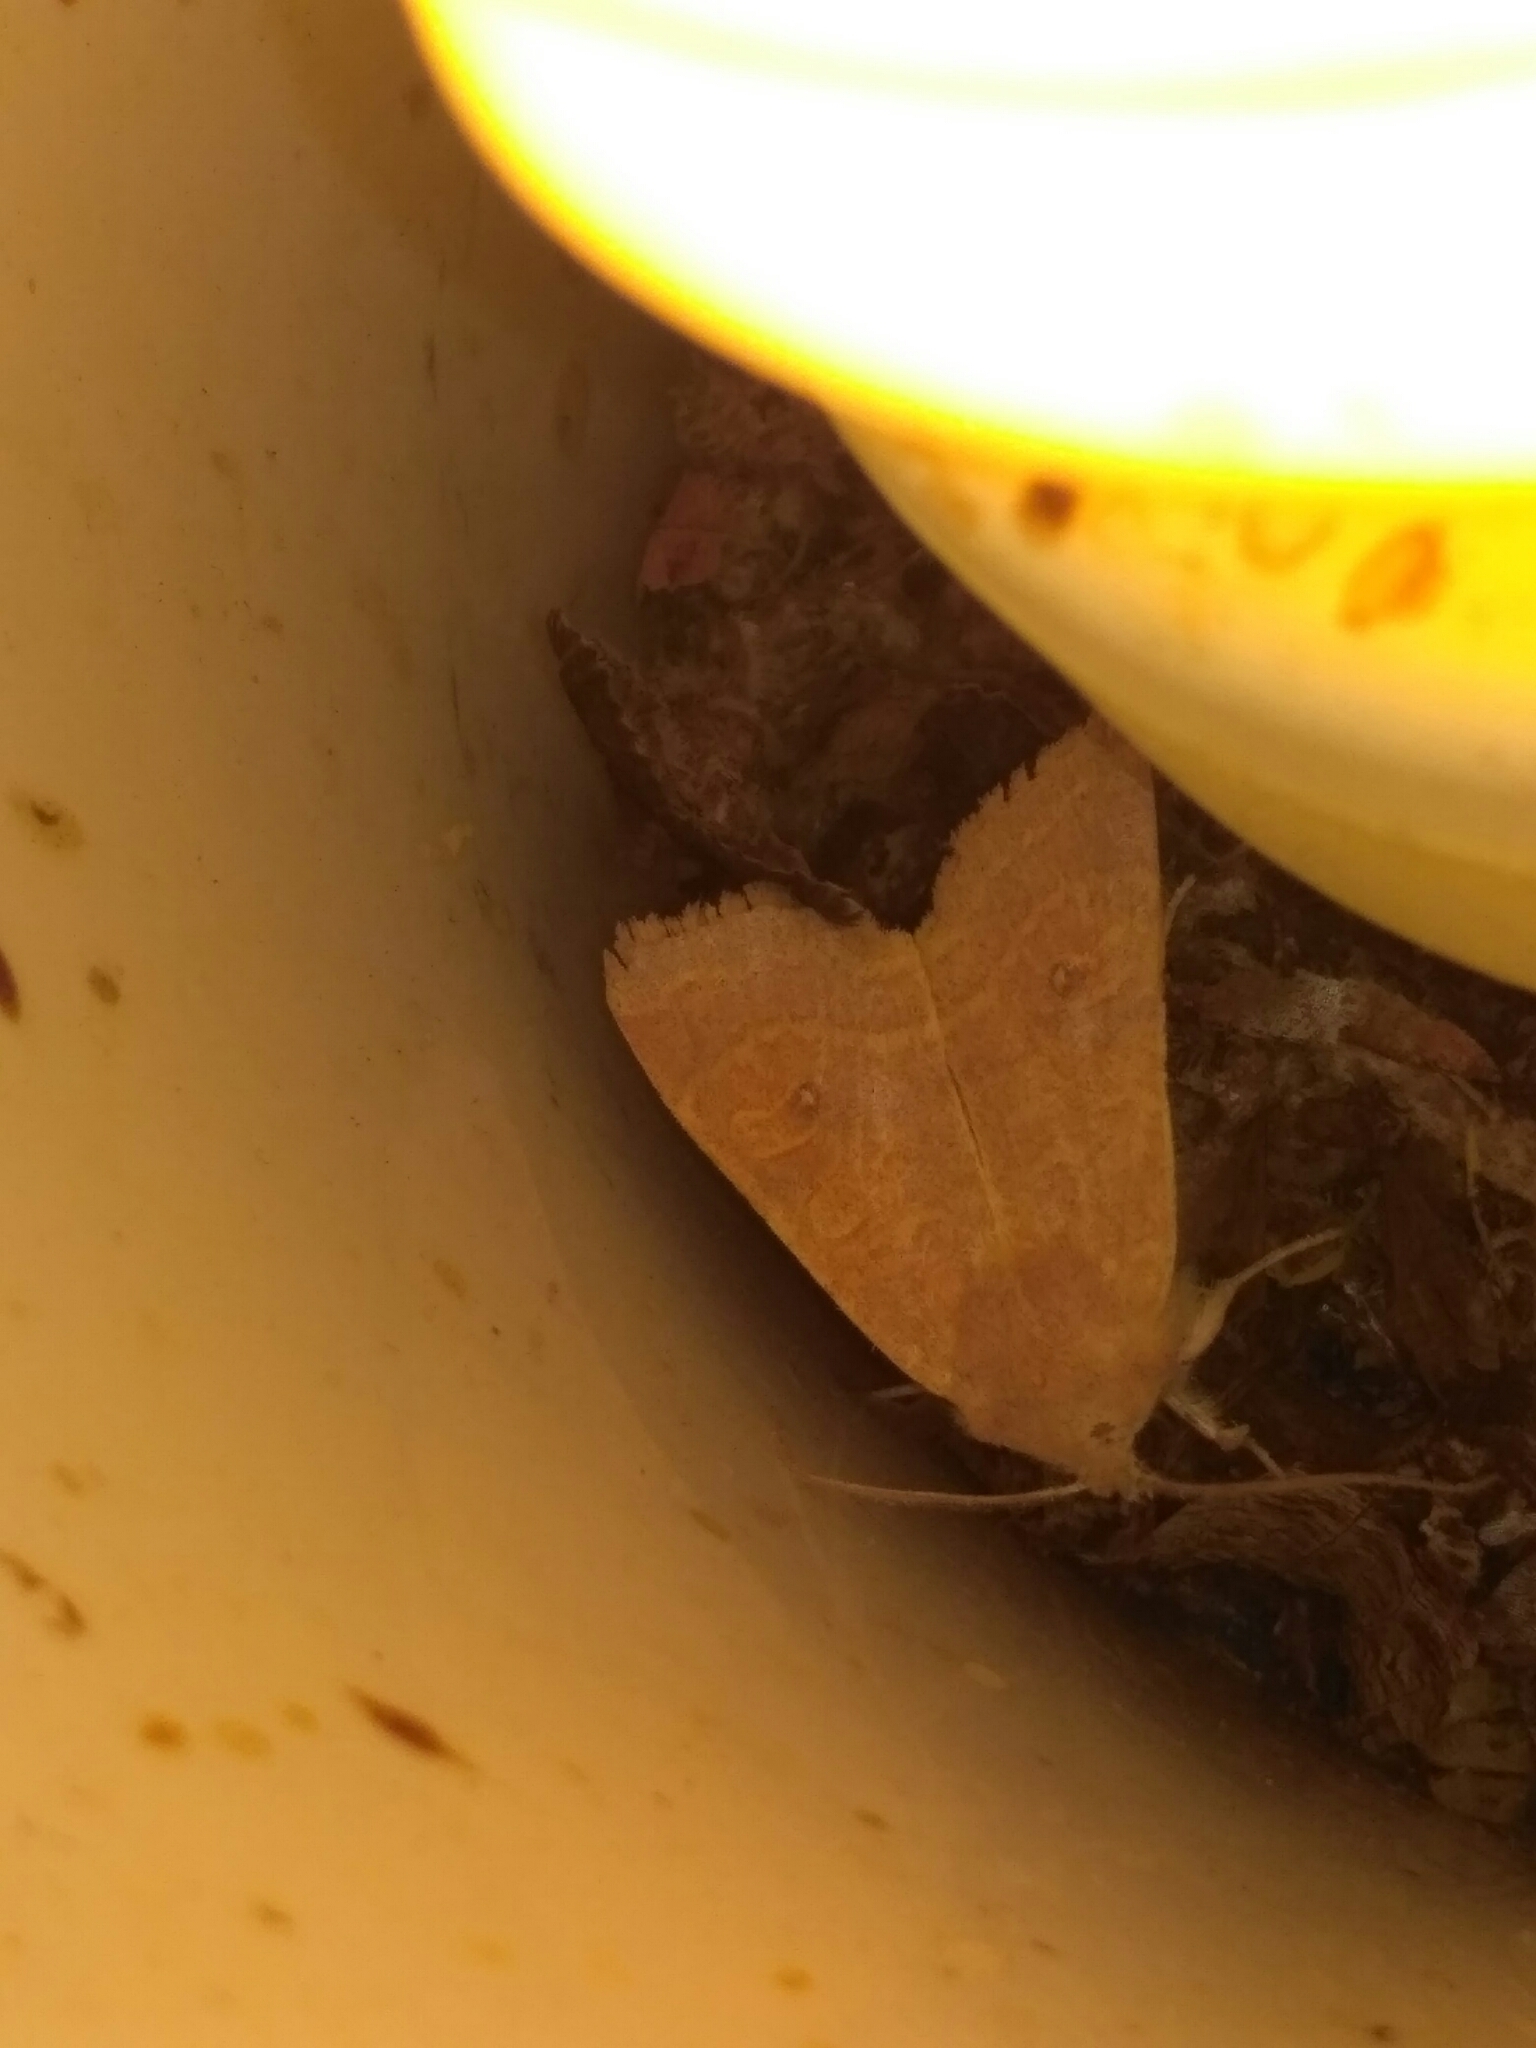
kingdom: Animalia
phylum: Arthropoda
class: Insecta
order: Lepidoptera
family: Noctuidae
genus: Xanthia
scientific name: Xanthia ocellaris
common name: Pale-lemon sallow
